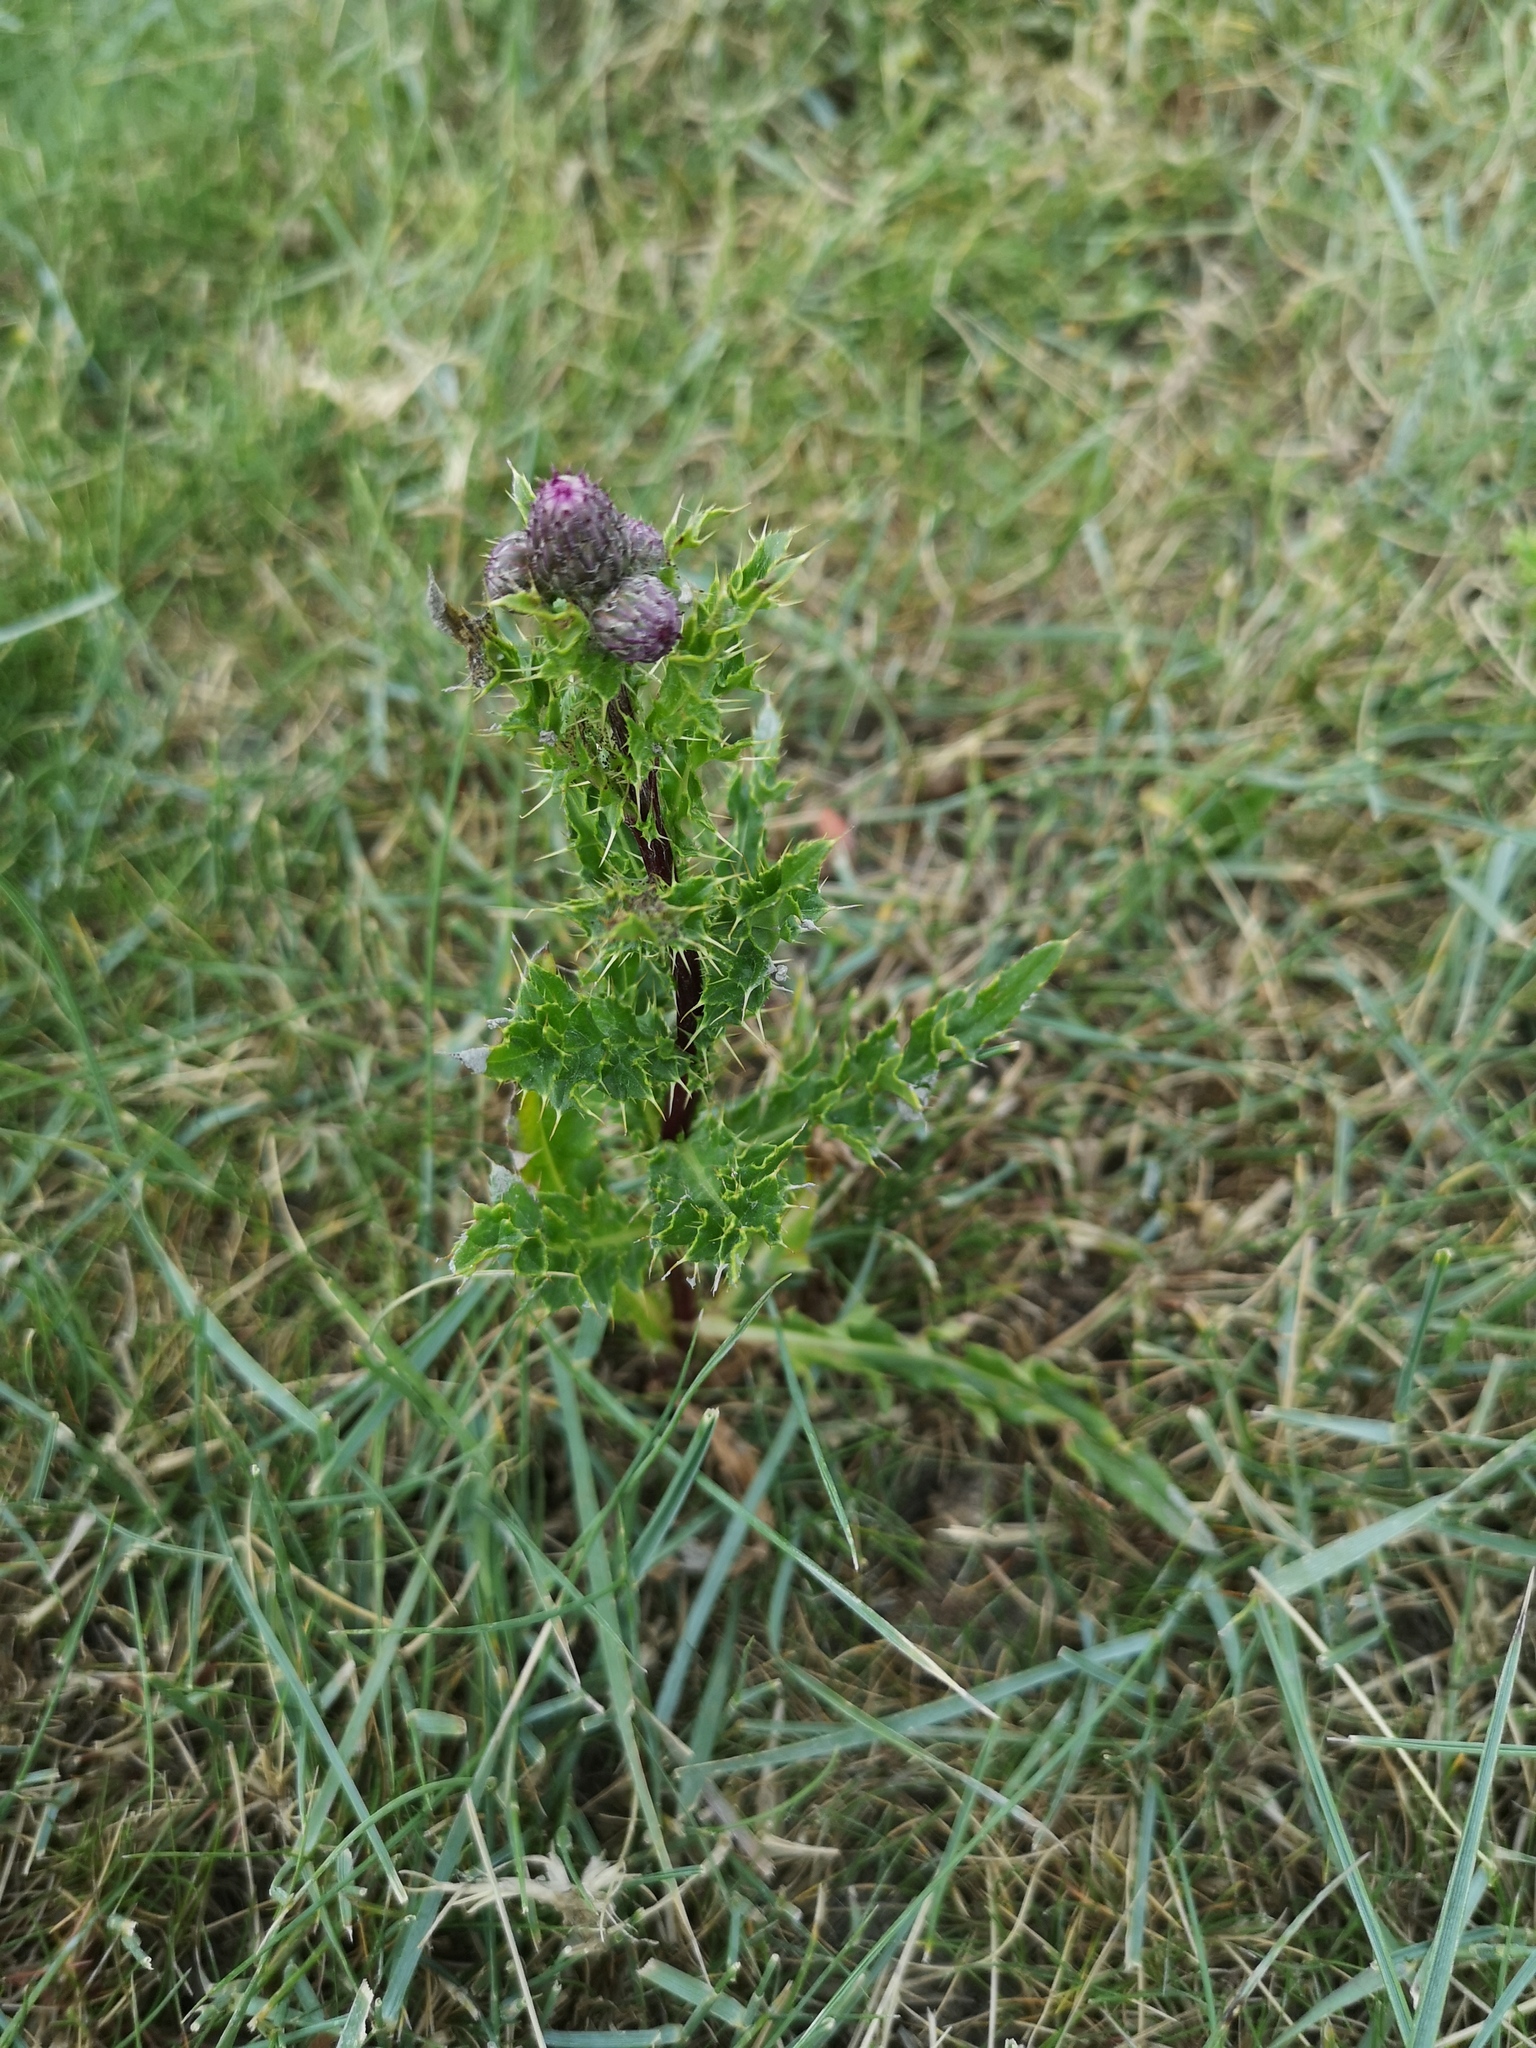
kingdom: Plantae
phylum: Tracheophyta
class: Magnoliopsida
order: Asterales
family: Asteraceae
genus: Cirsium
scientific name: Cirsium arvense
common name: Creeping thistle
